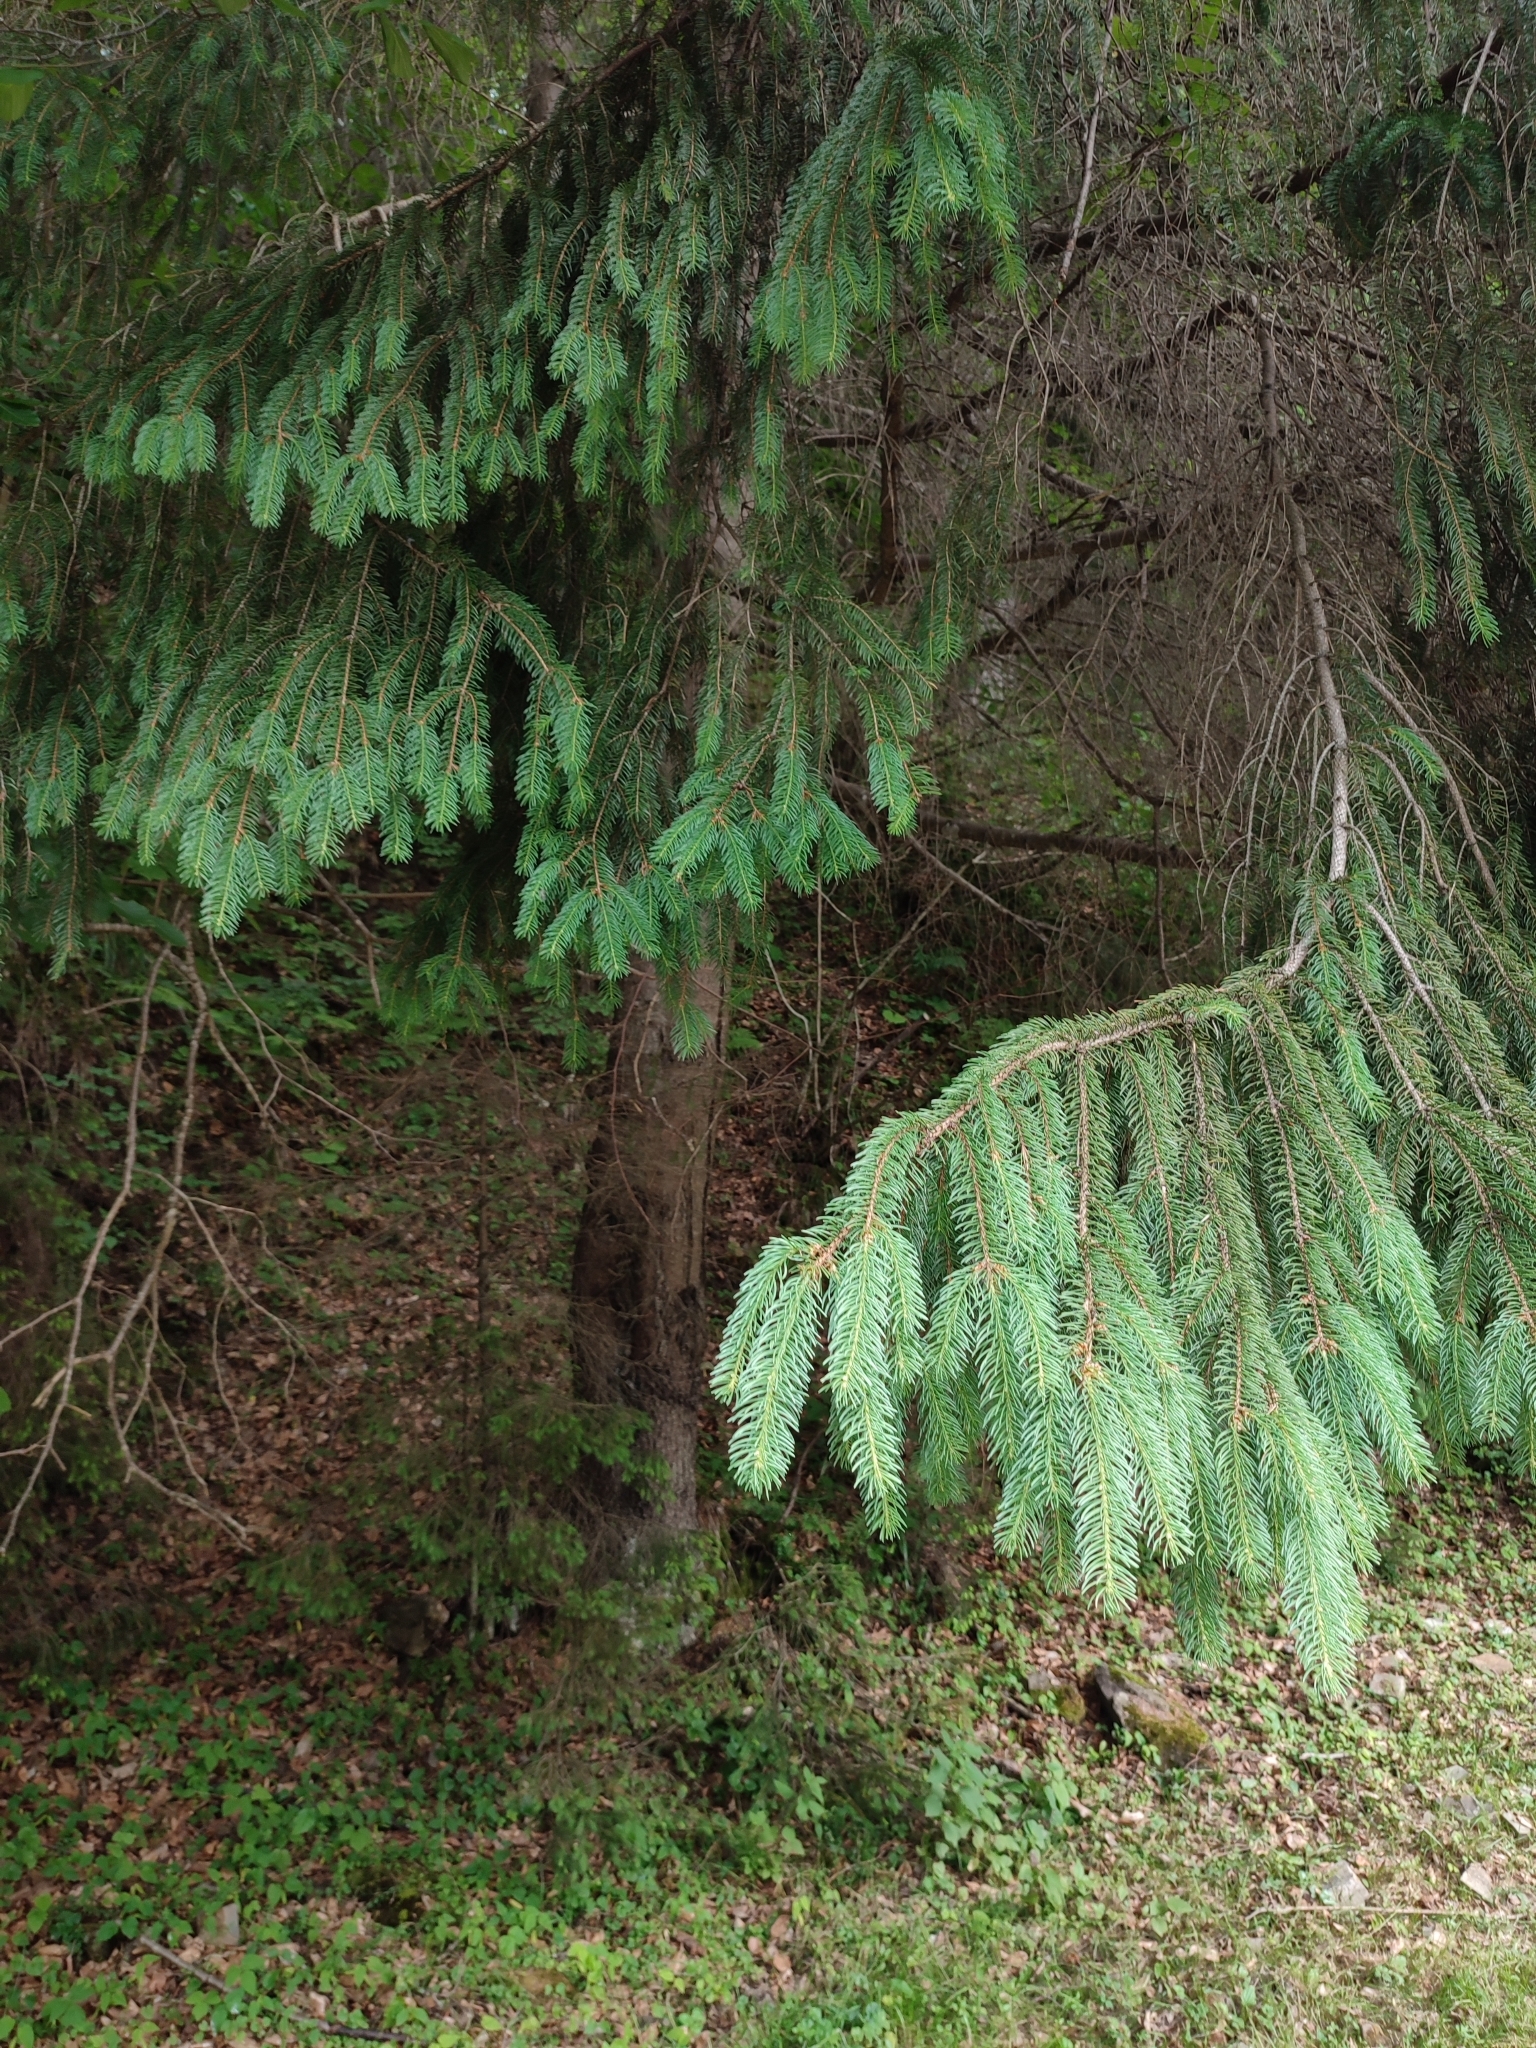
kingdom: Plantae
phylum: Tracheophyta
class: Pinopsida
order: Pinales
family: Pinaceae
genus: Picea
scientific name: Picea abies
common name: Norway spruce
